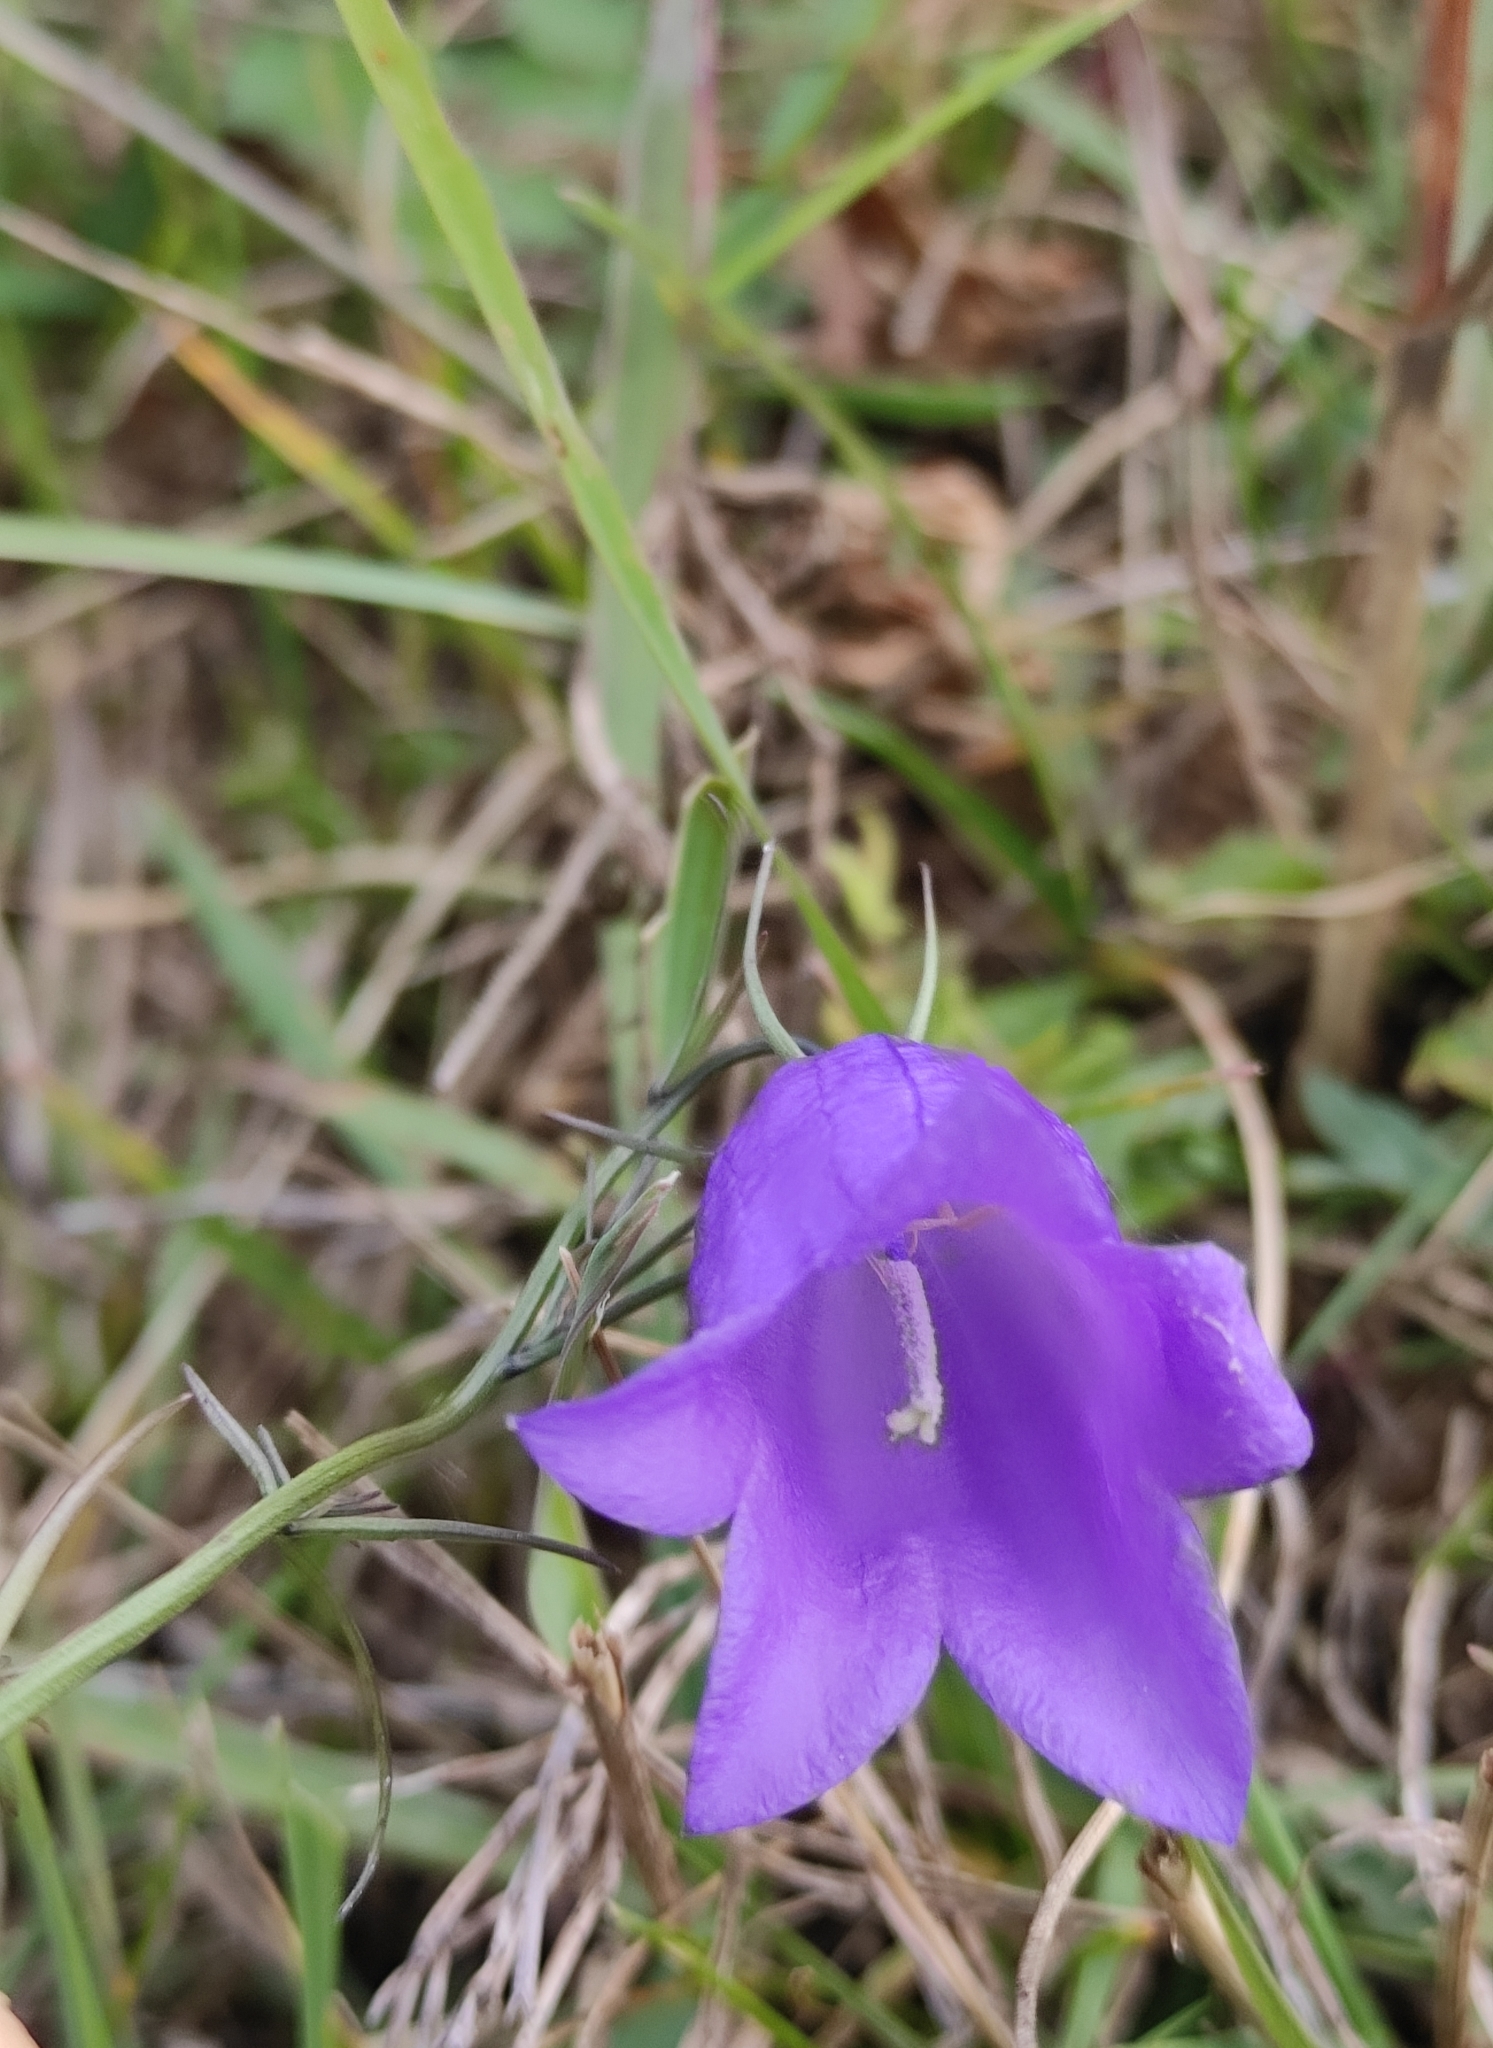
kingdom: Plantae
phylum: Tracheophyta
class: Magnoliopsida
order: Asterales
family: Campanulaceae
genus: Campanula
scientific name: Campanula rotundifolia
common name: Harebell
